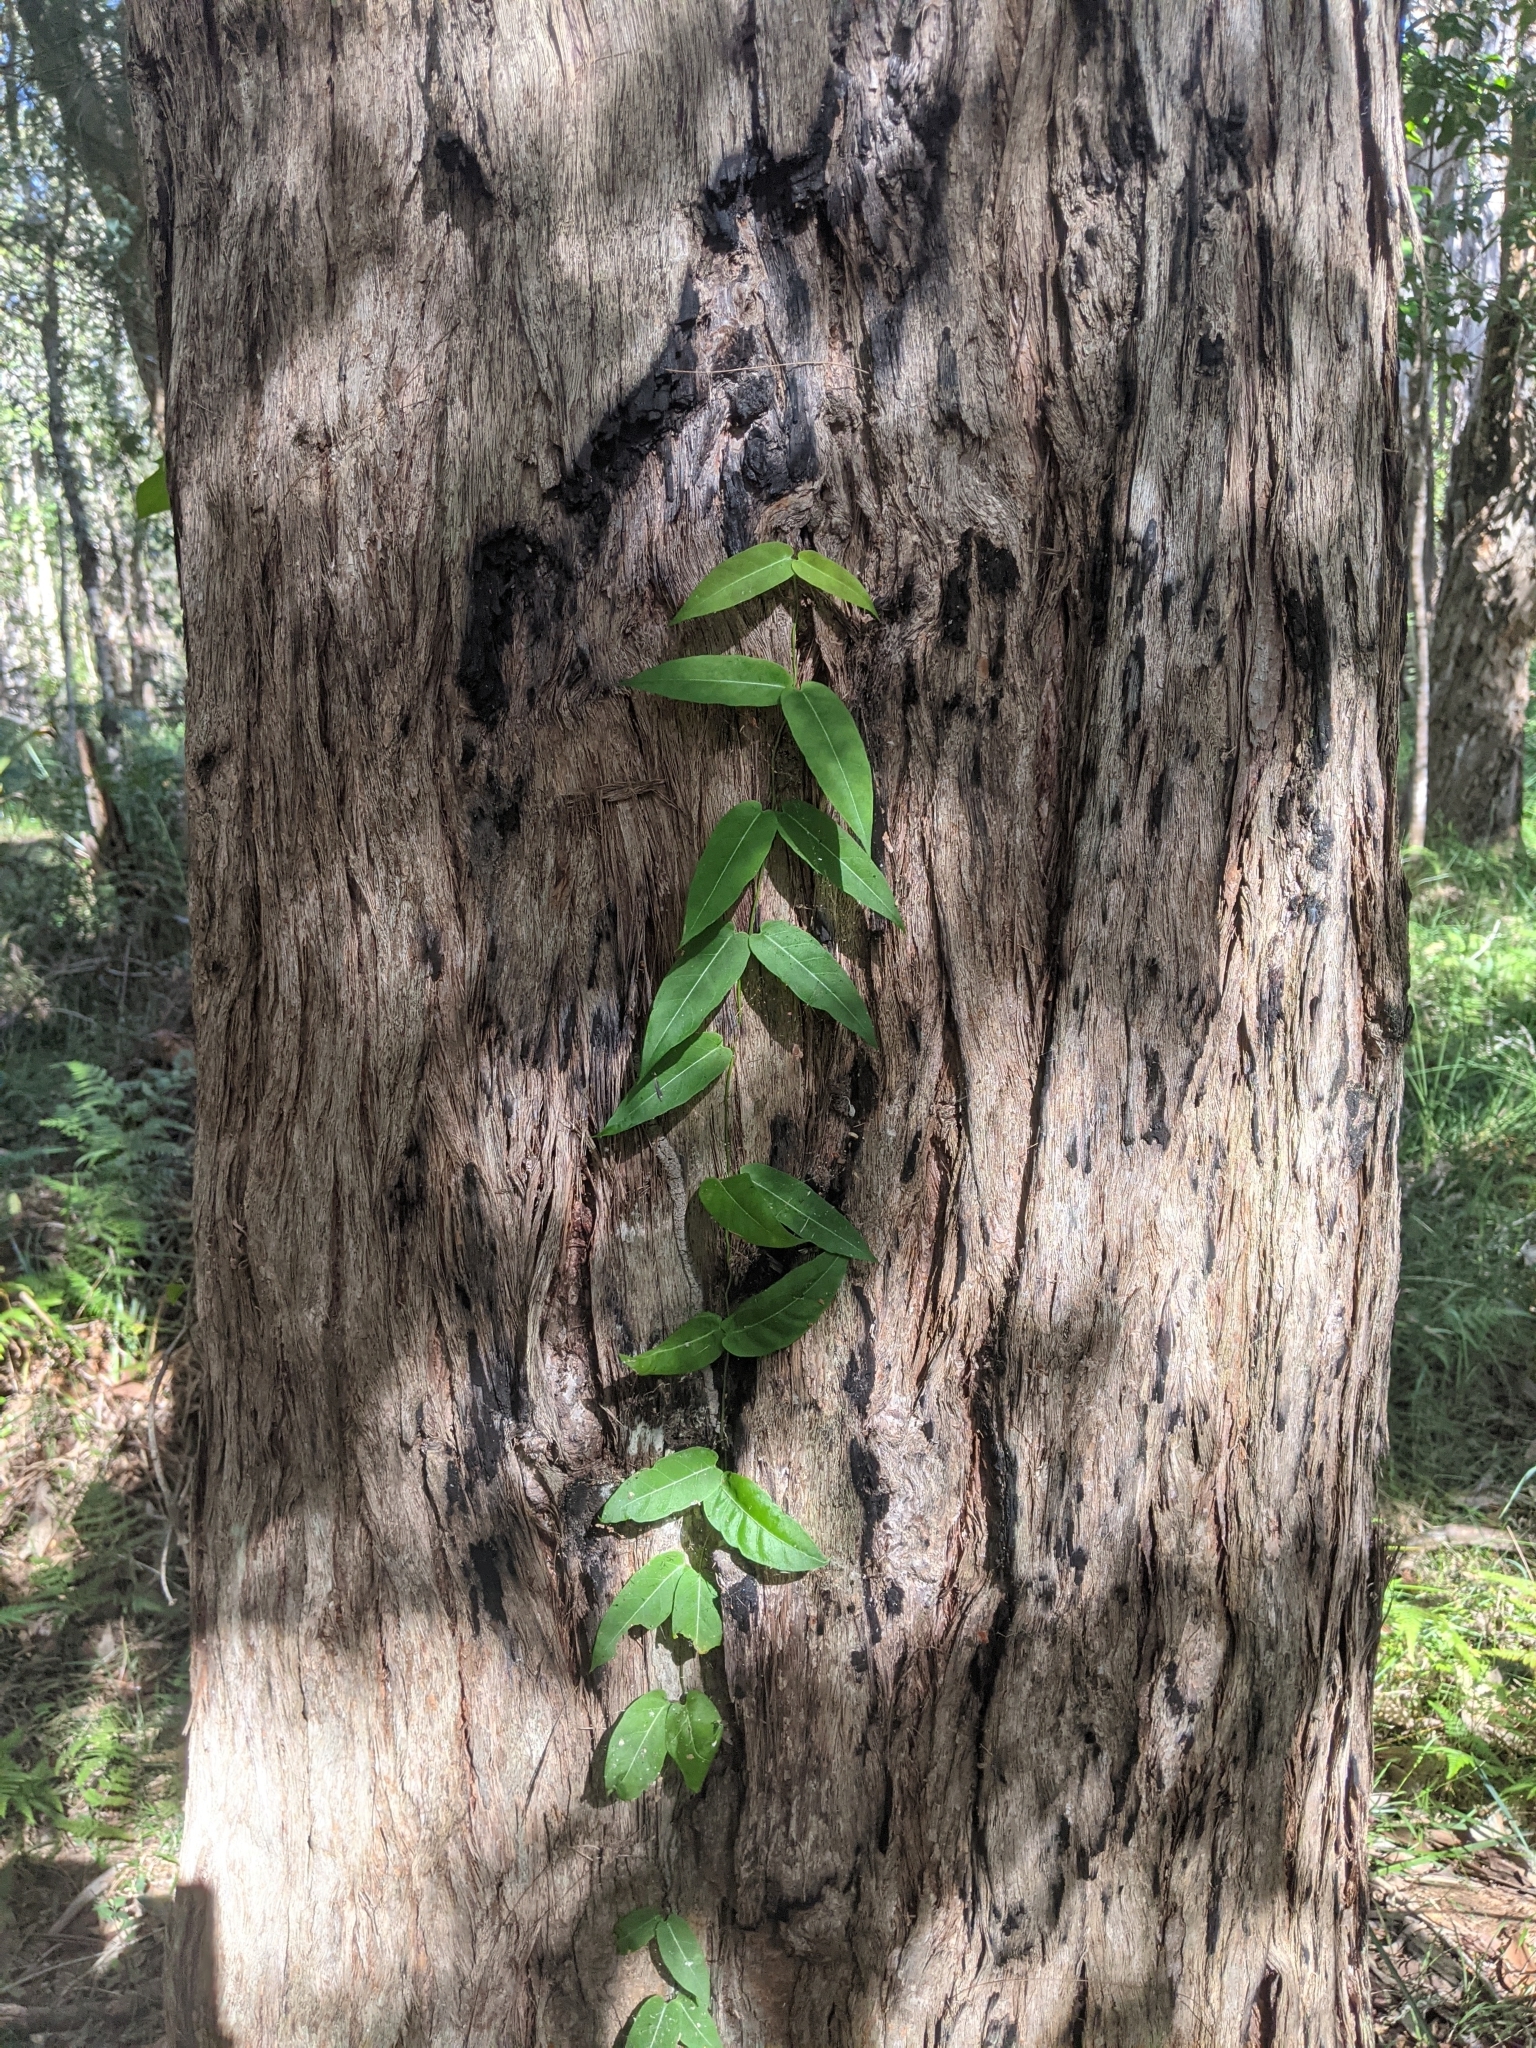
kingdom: Plantae
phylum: Tracheophyta
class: Magnoliopsida
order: Gentianales
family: Apocynaceae
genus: Parsonsia
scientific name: Parsonsia straminea
